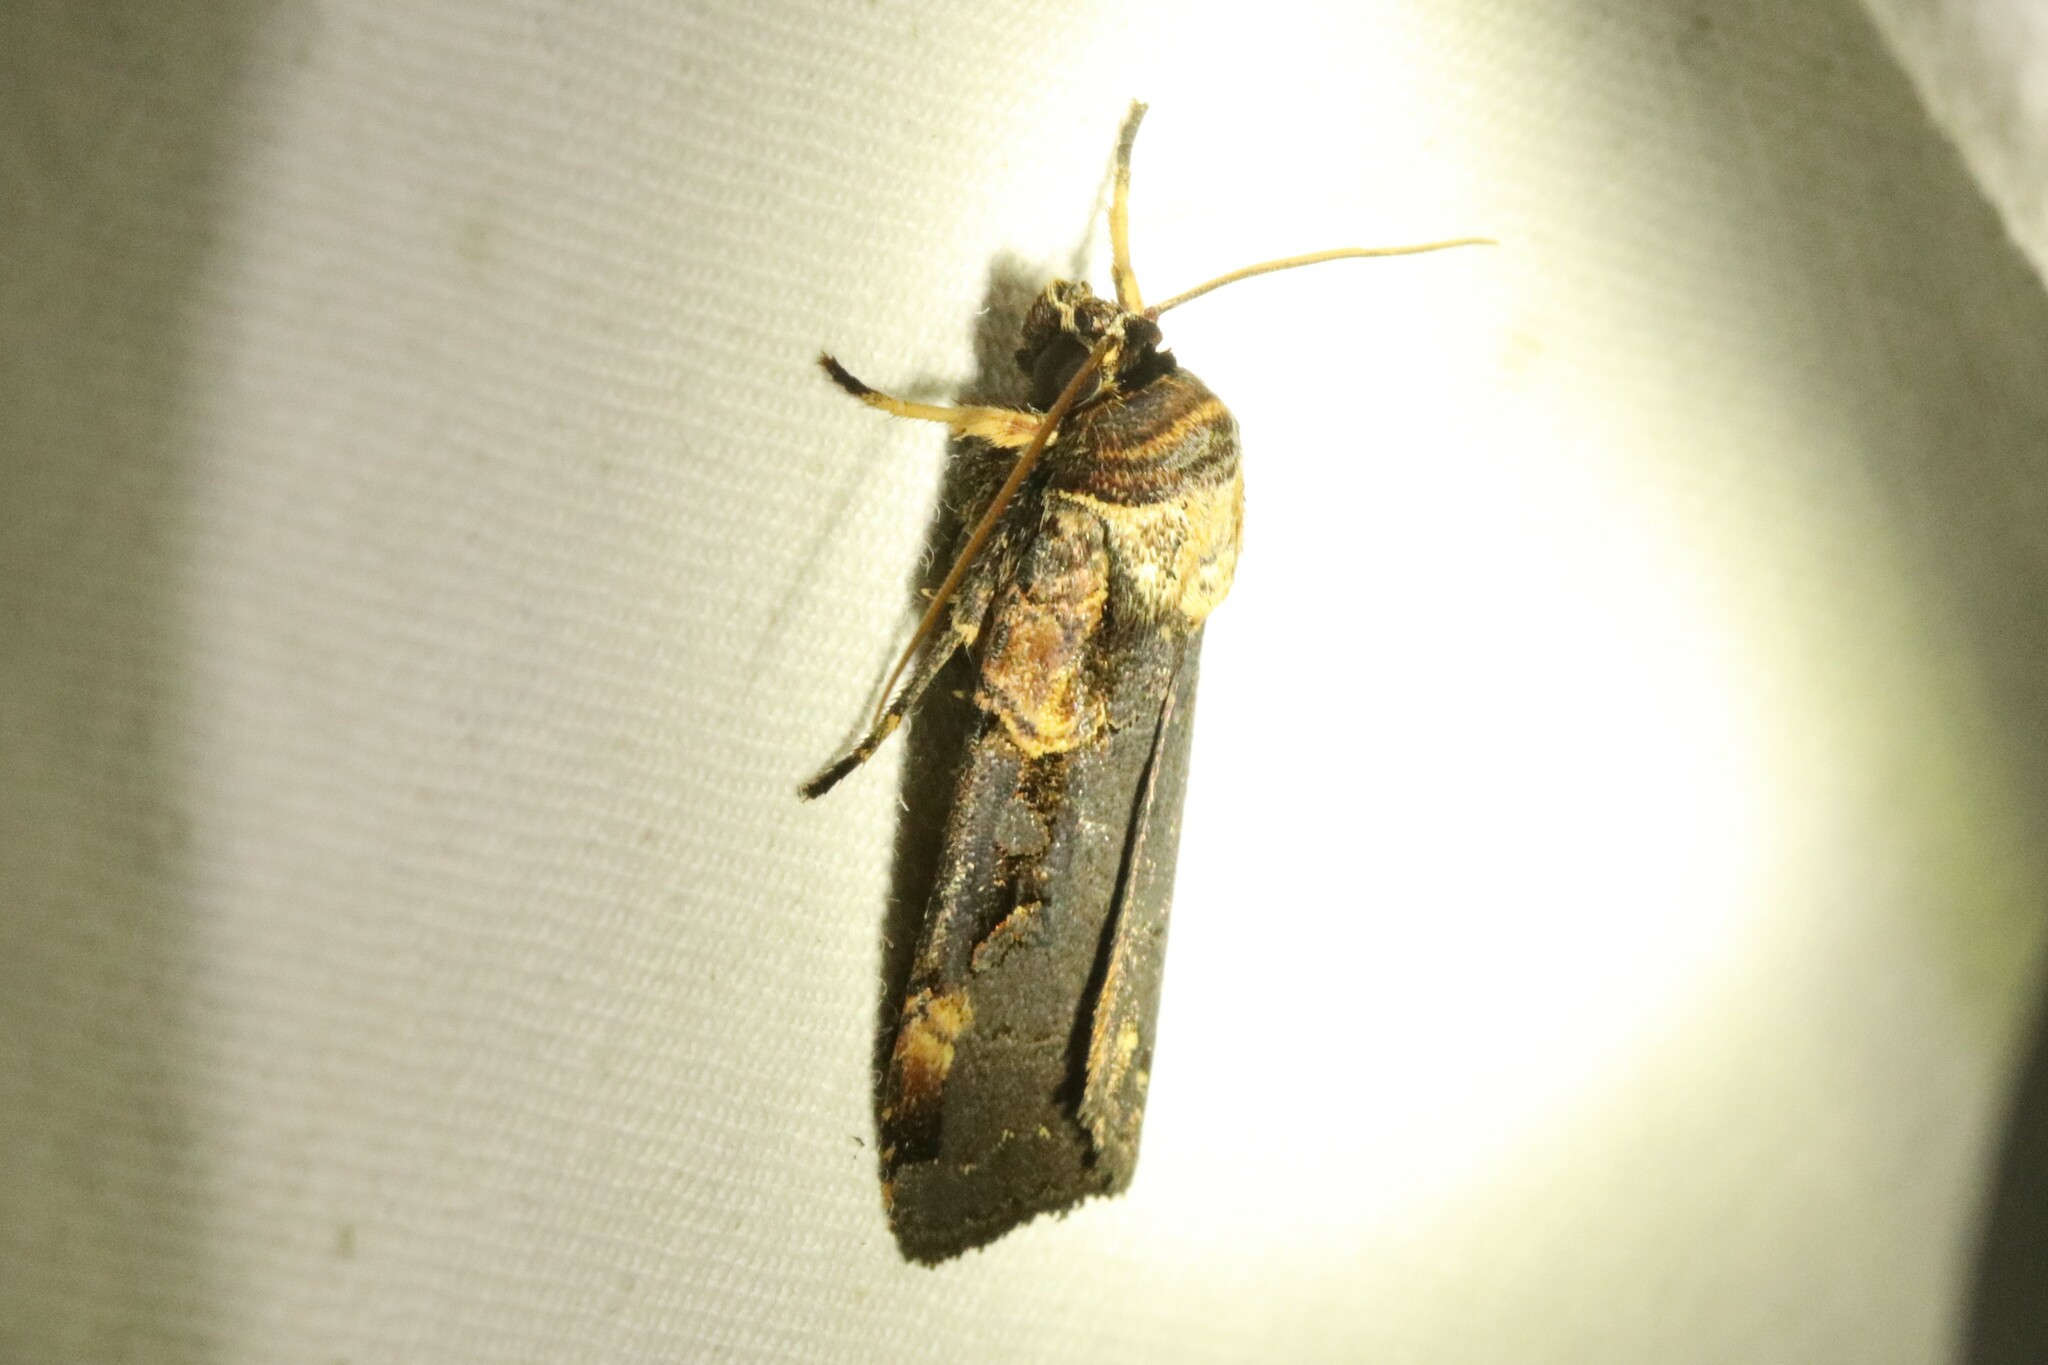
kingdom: Animalia
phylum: Arthropoda
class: Insecta
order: Lepidoptera
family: Noctuidae
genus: Pseudohermonassa
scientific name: Pseudohermonassa bicarnea
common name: Pink spotted dart
